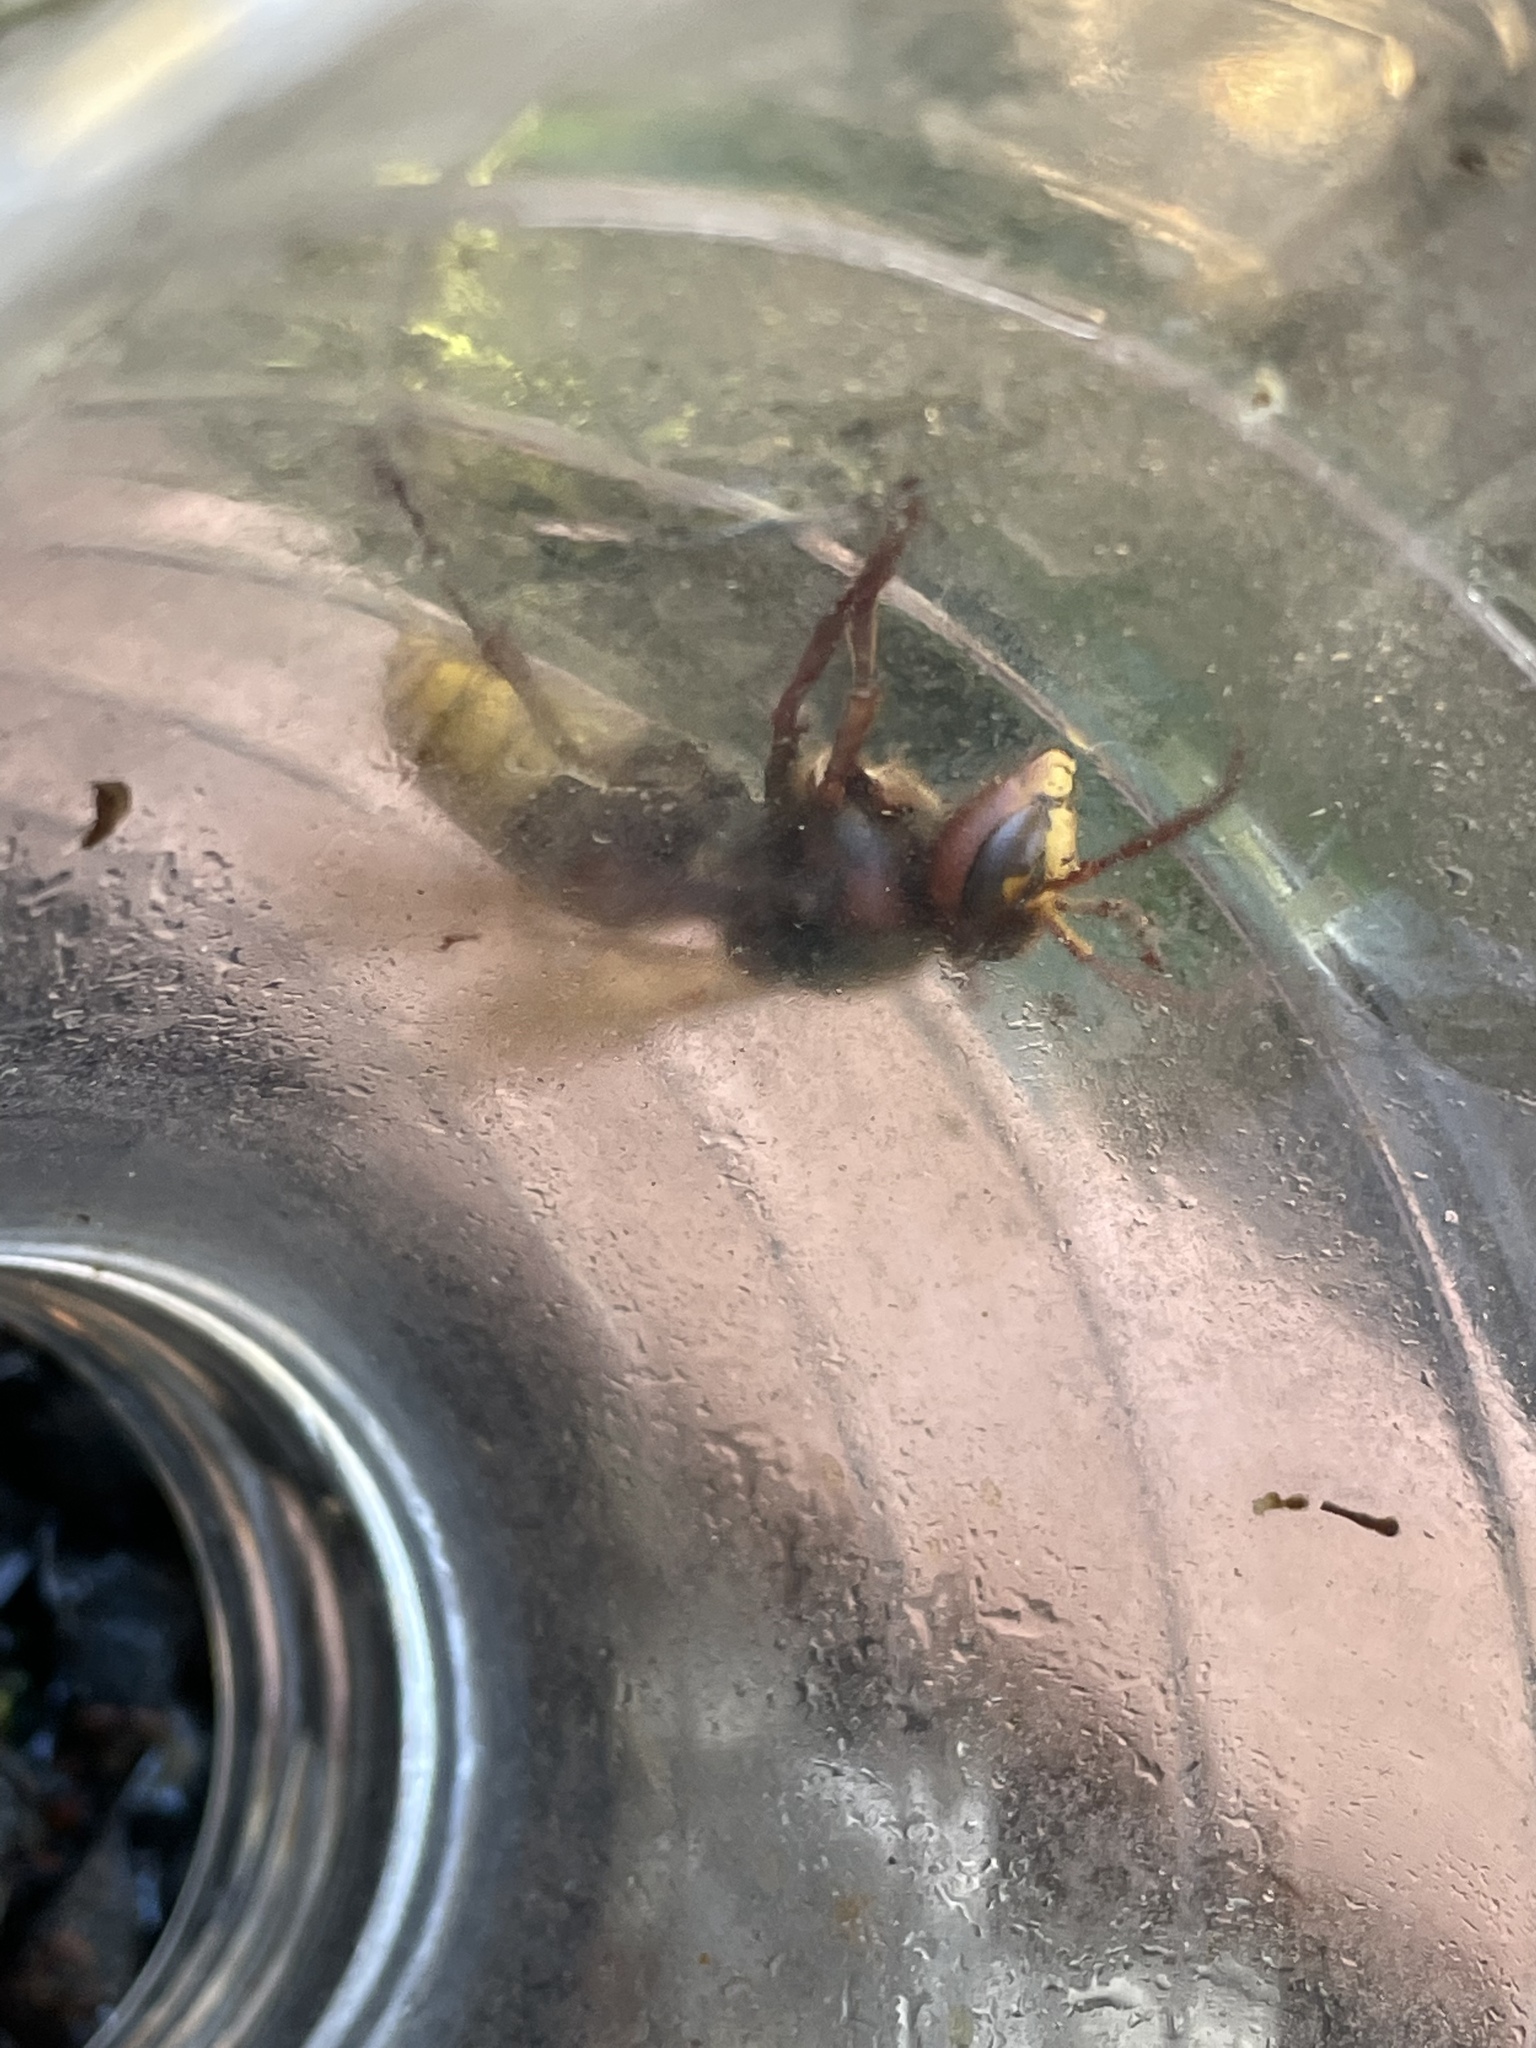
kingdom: Animalia
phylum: Arthropoda
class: Insecta
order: Hymenoptera
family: Vespidae
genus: Vespa
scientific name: Vespa crabro
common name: Hornet
